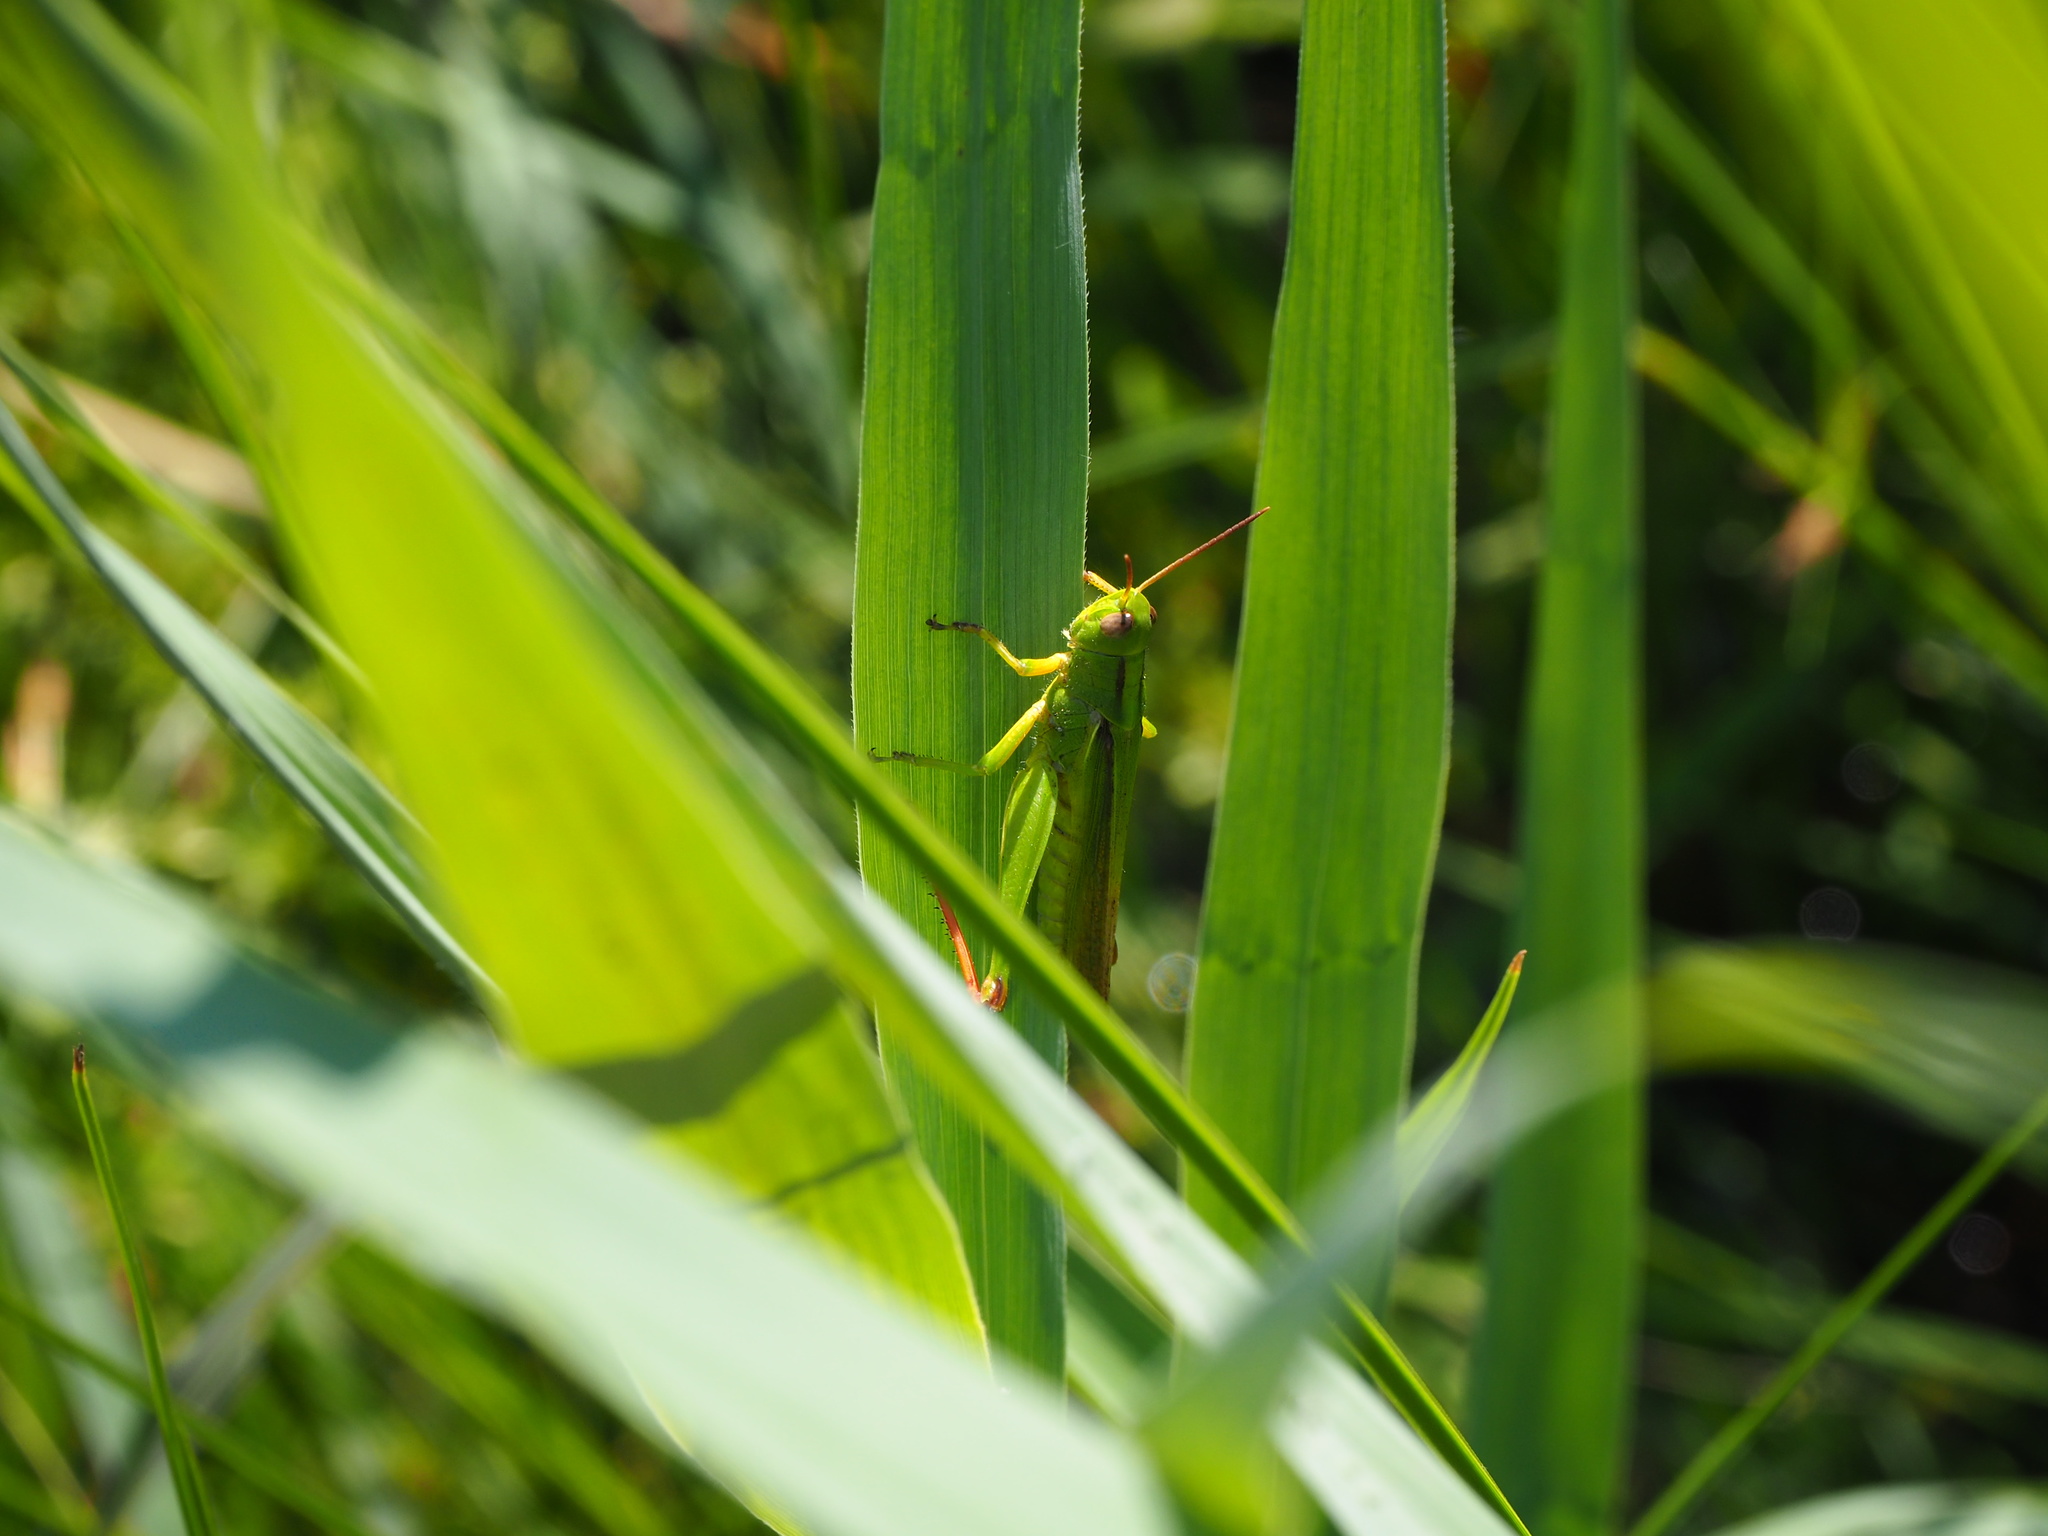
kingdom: Animalia
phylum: Arthropoda
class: Insecta
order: Orthoptera
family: Acrididae
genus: Paracinema
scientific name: Paracinema tricolor
